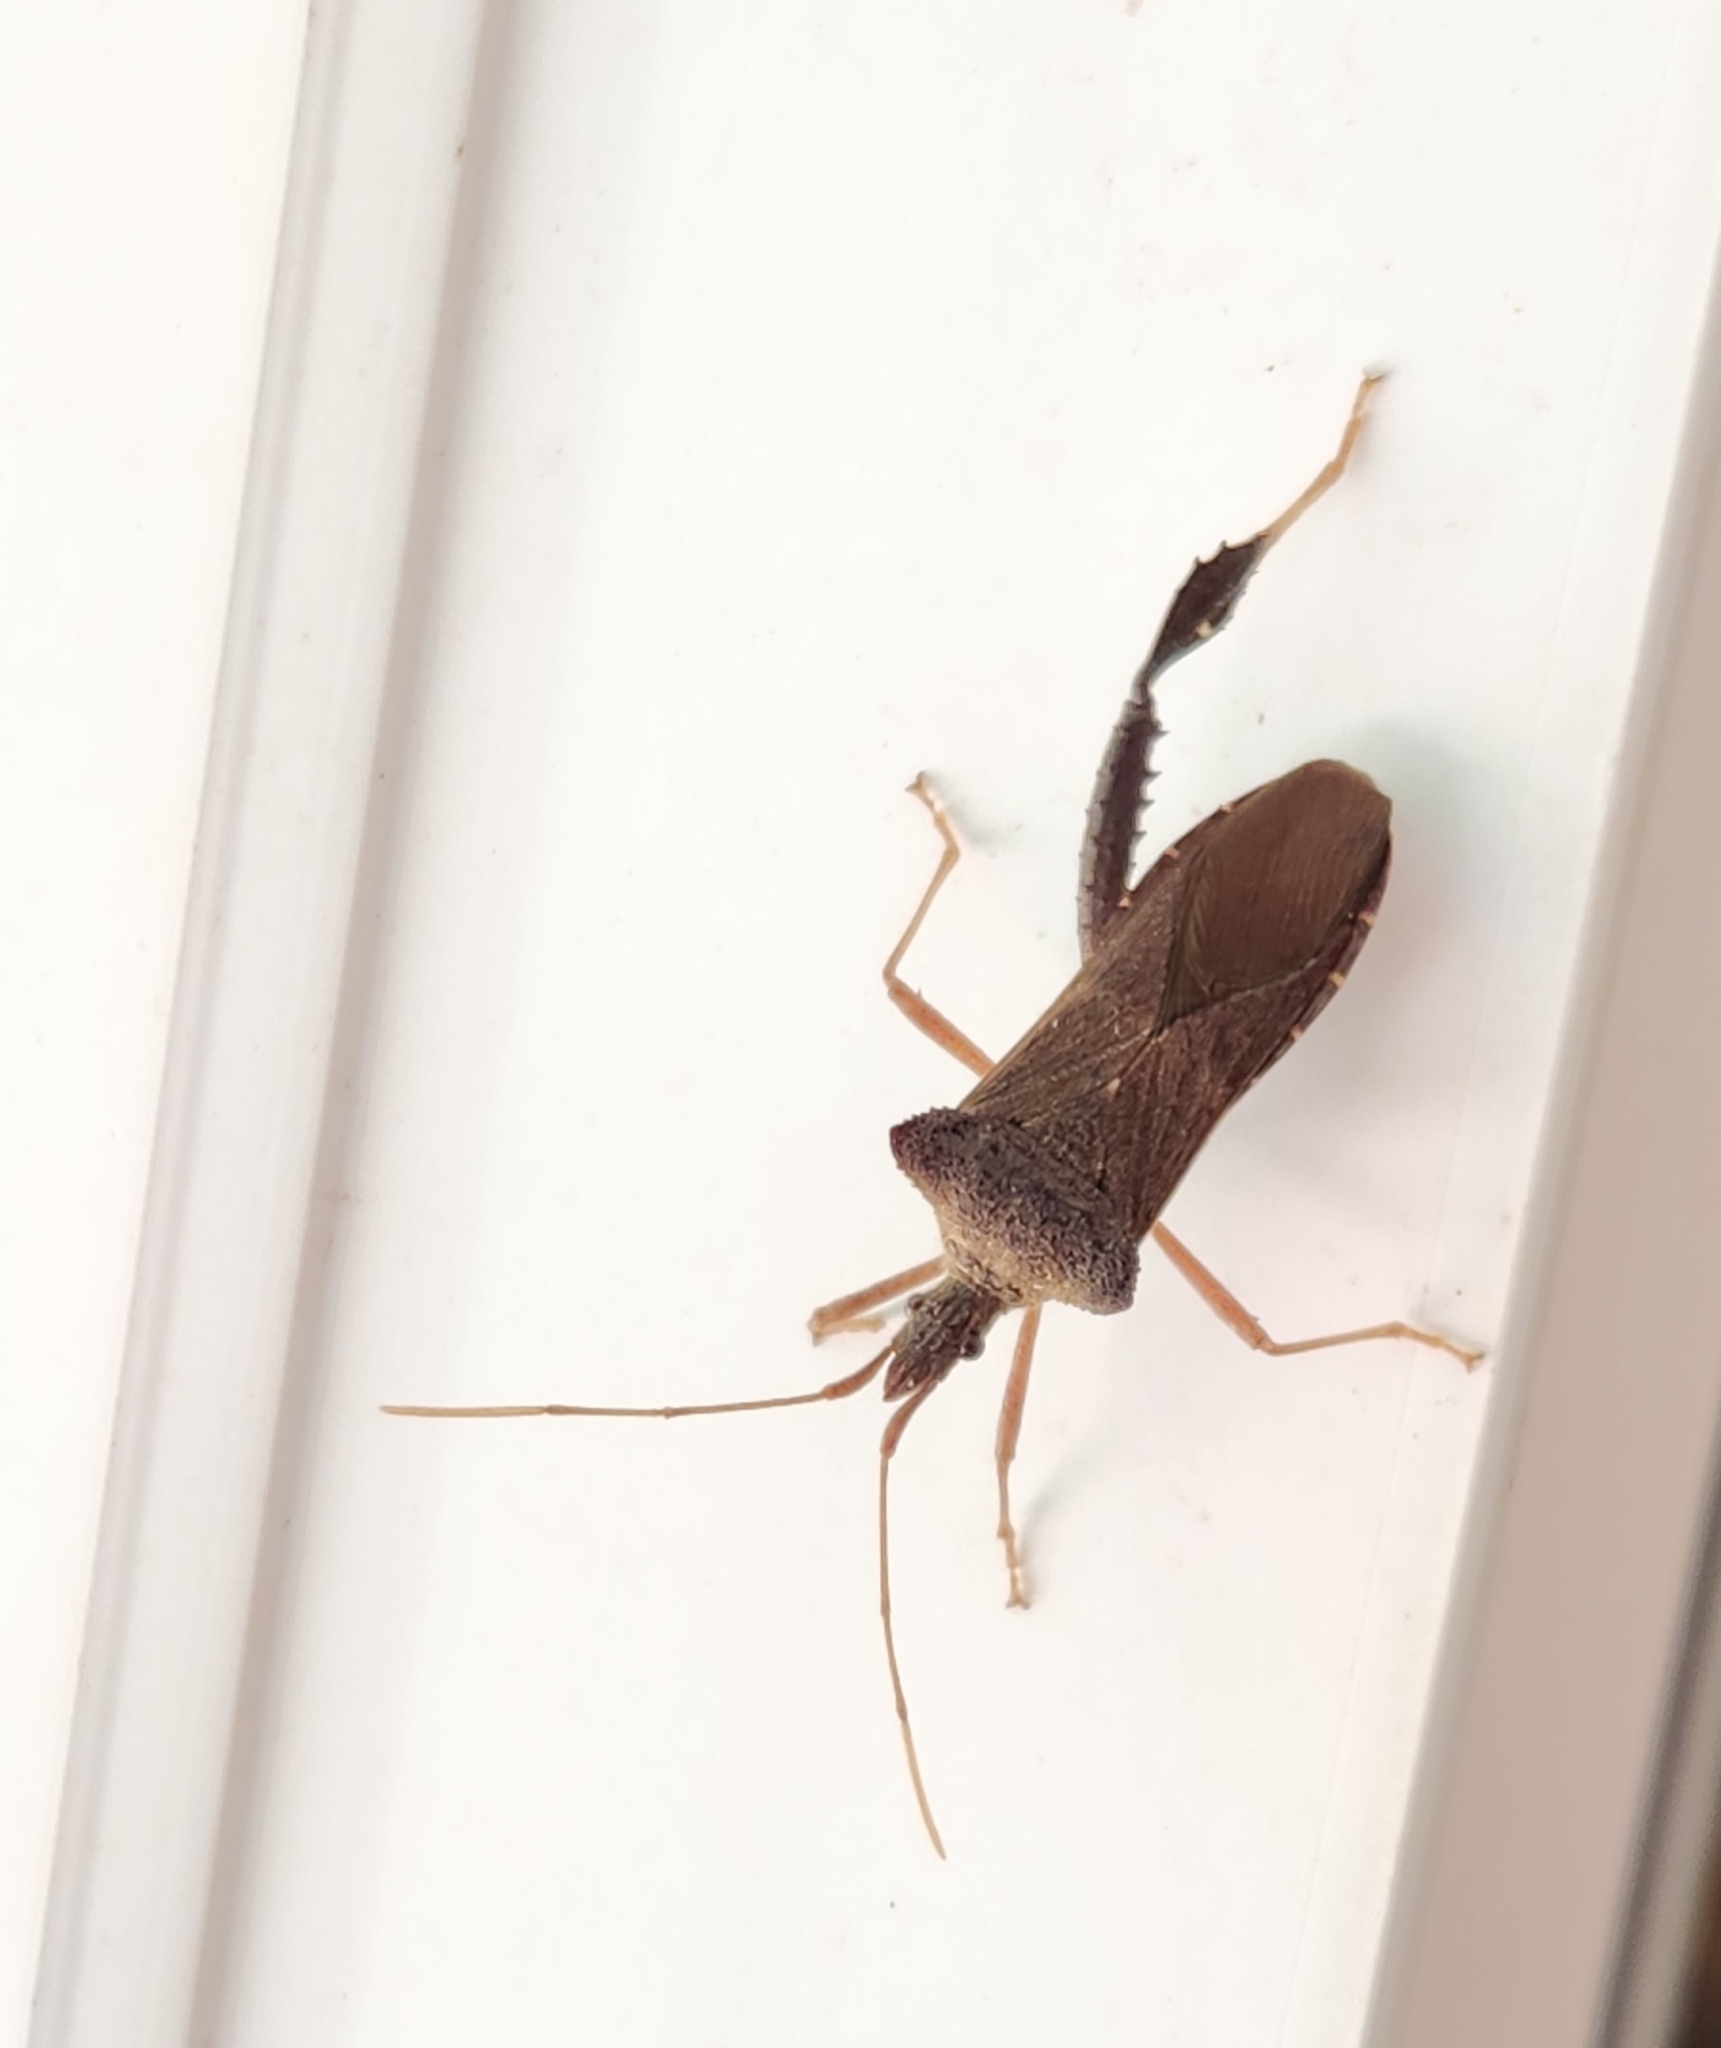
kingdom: Animalia
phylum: Arthropoda
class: Insecta
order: Hemiptera
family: Coreidae
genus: Leptoglossus
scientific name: Leptoglossus fulvicornis
